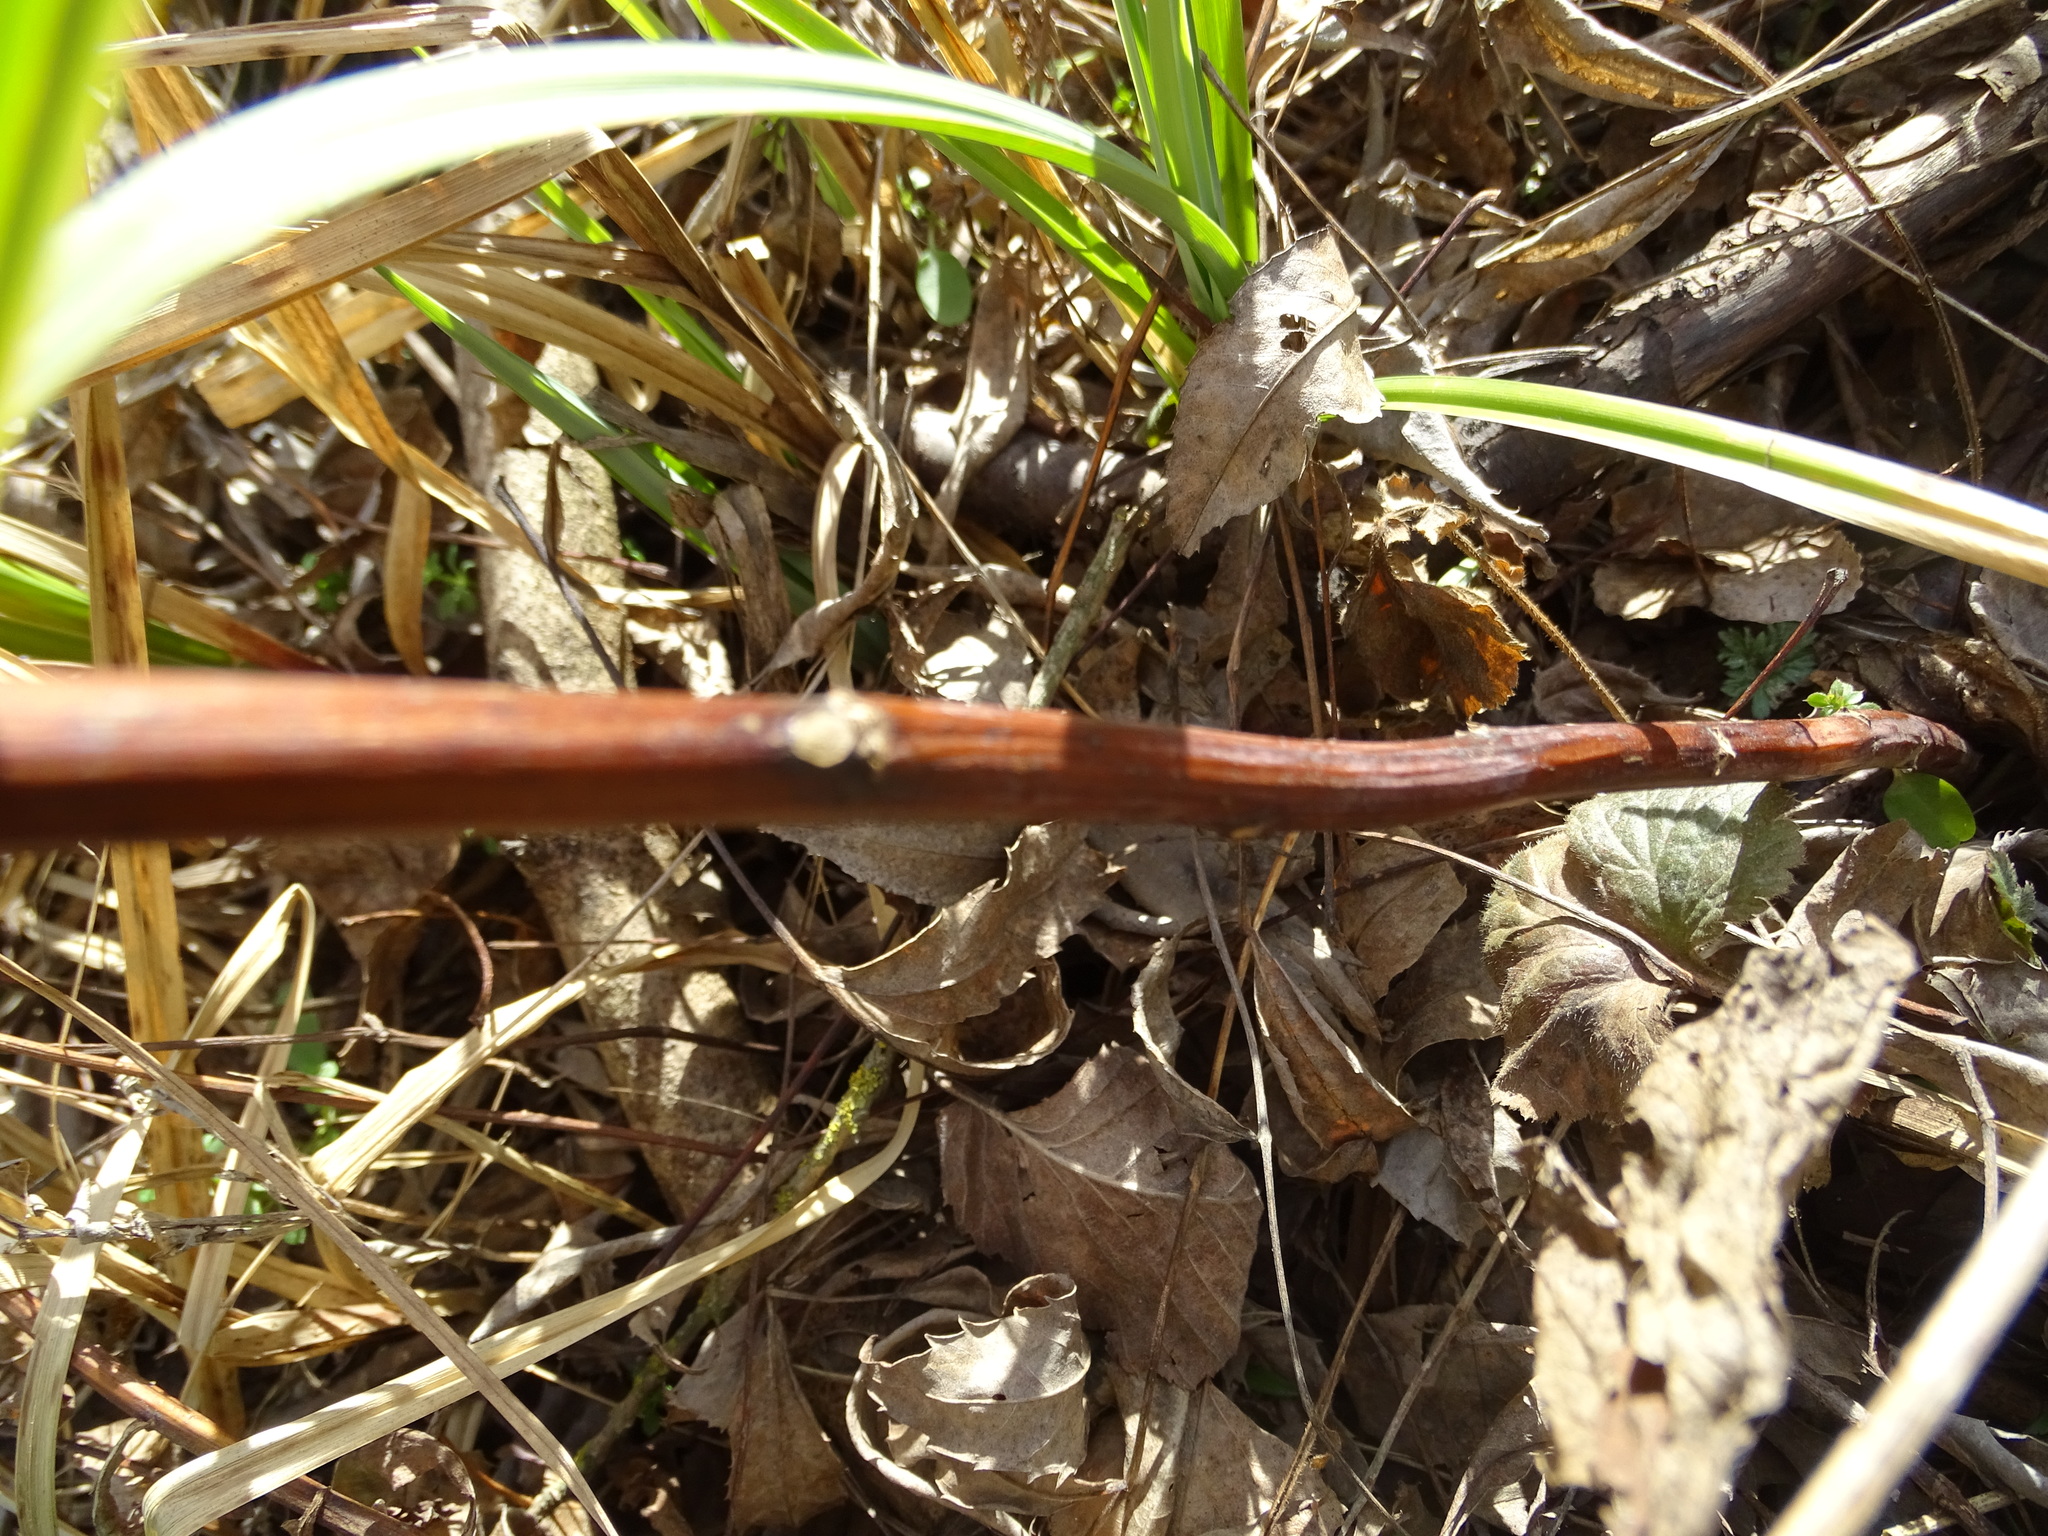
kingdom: Plantae
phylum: Tracheophyta
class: Magnoliopsida
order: Asterales
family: Asteraceae
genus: Solidago
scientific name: Solidago gigantea
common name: Giant goldenrod
